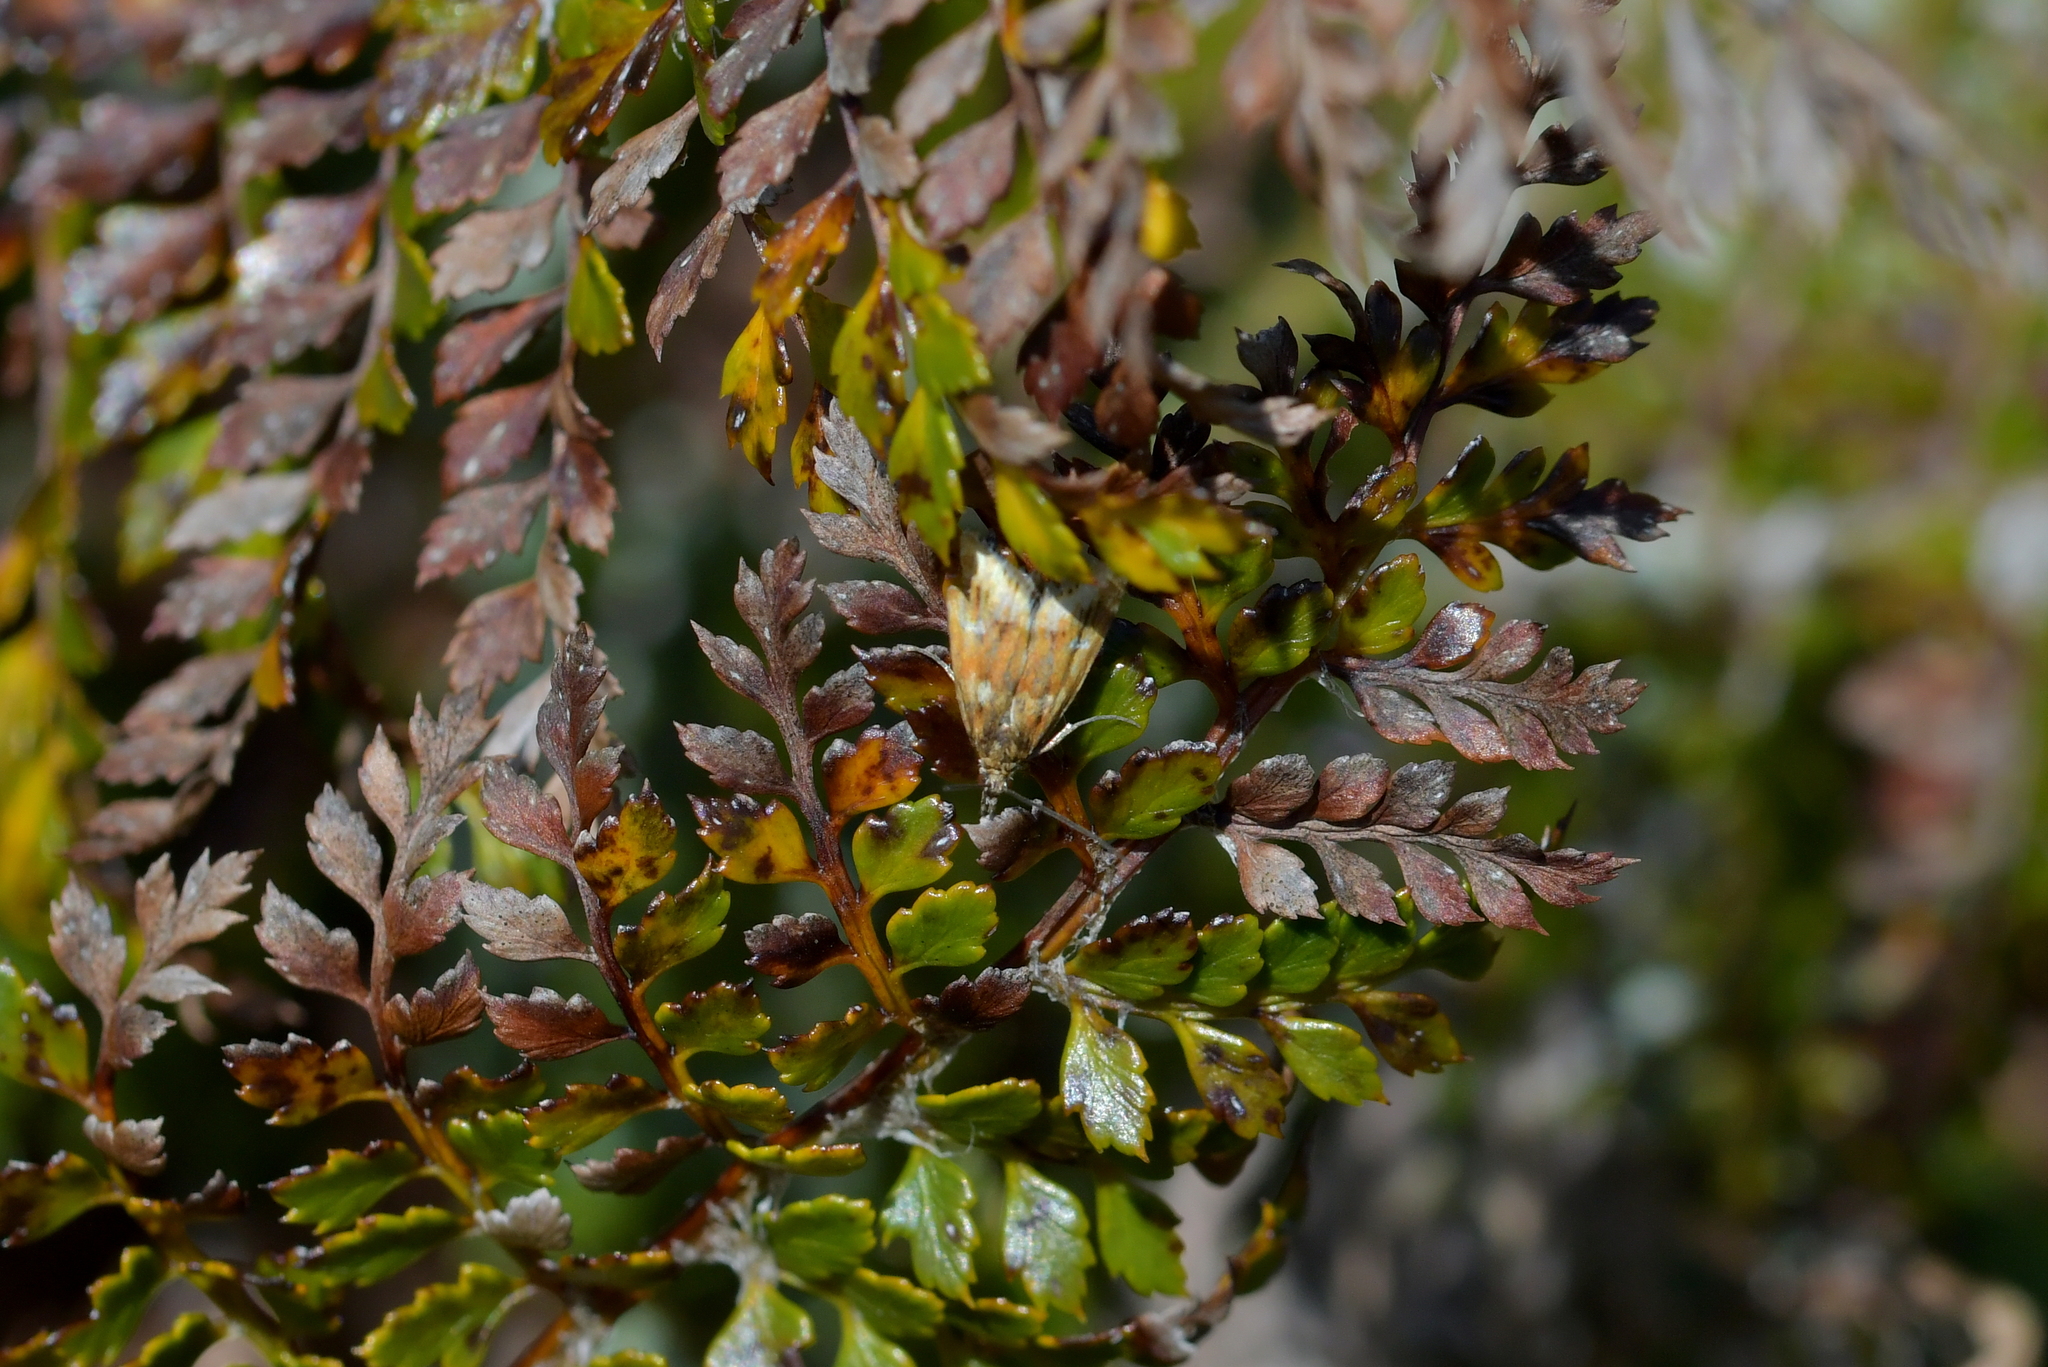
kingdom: Animalia
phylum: Arthropoda
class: Insecta
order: Lepidoptera
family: Crambidae
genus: Glaucocharis
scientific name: Glaucocharis helioctypa
